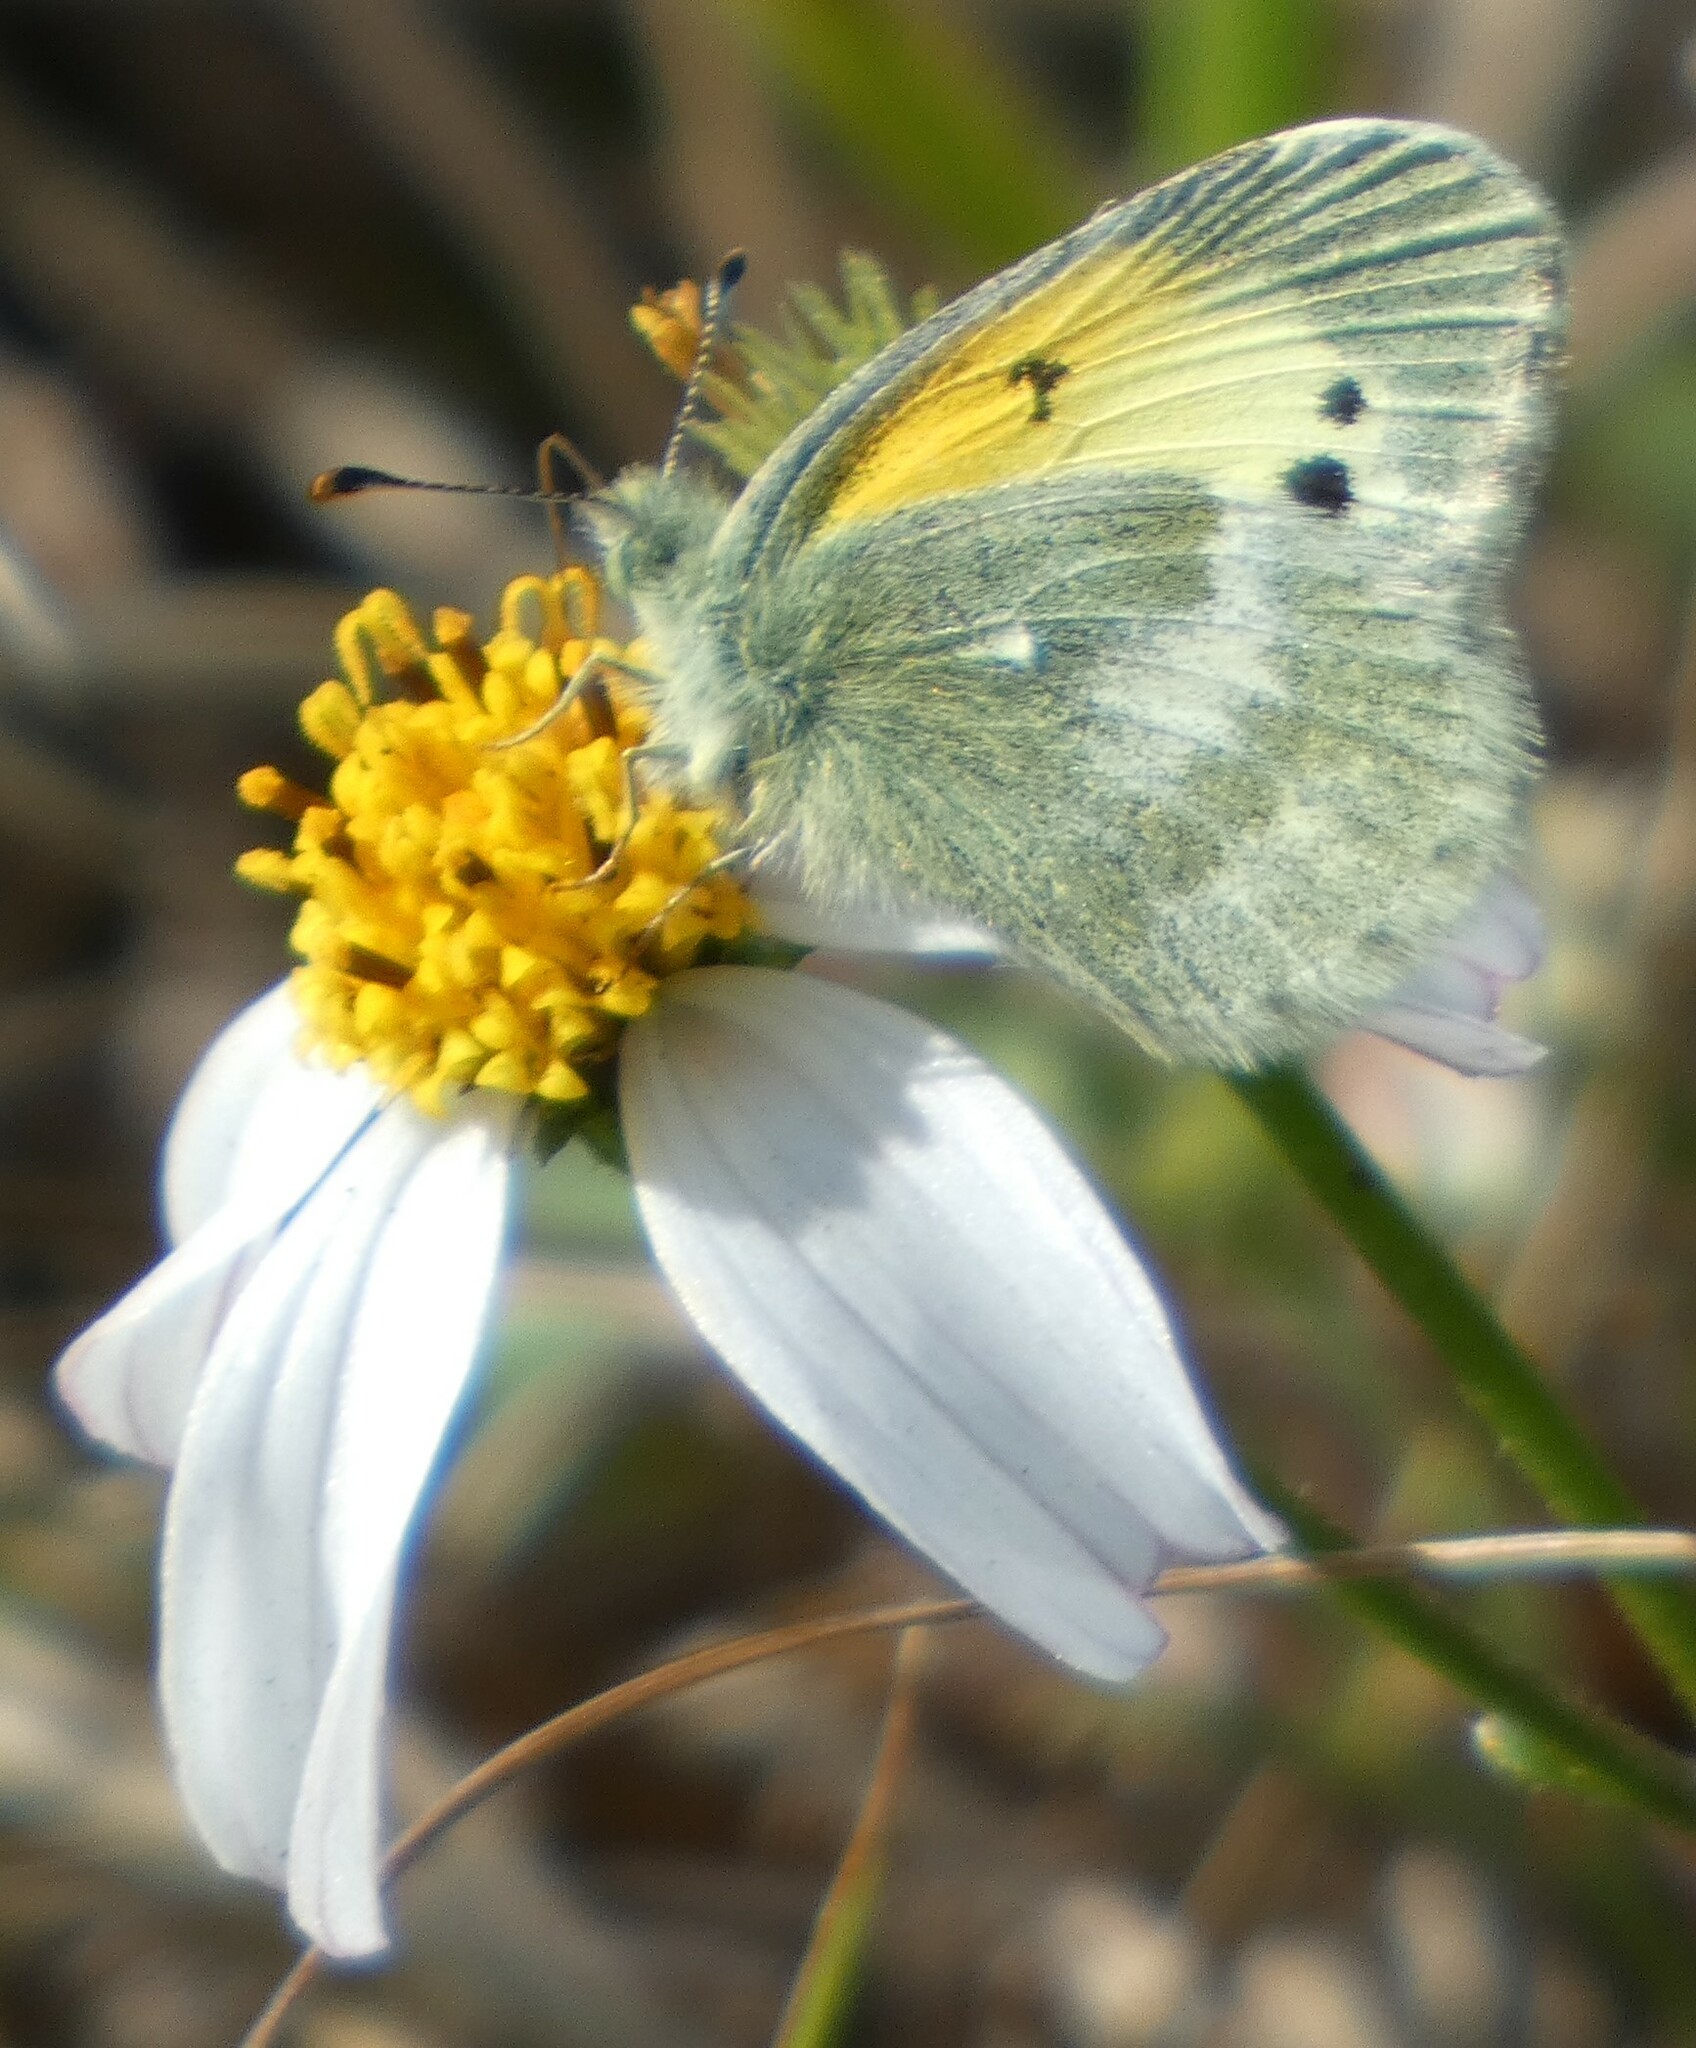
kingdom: Animalia
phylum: Arthropoda
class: Insecta
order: Lepidoptera
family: Pieridae
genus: Nathalis
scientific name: Nathalis iole
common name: Dainty sulphur
